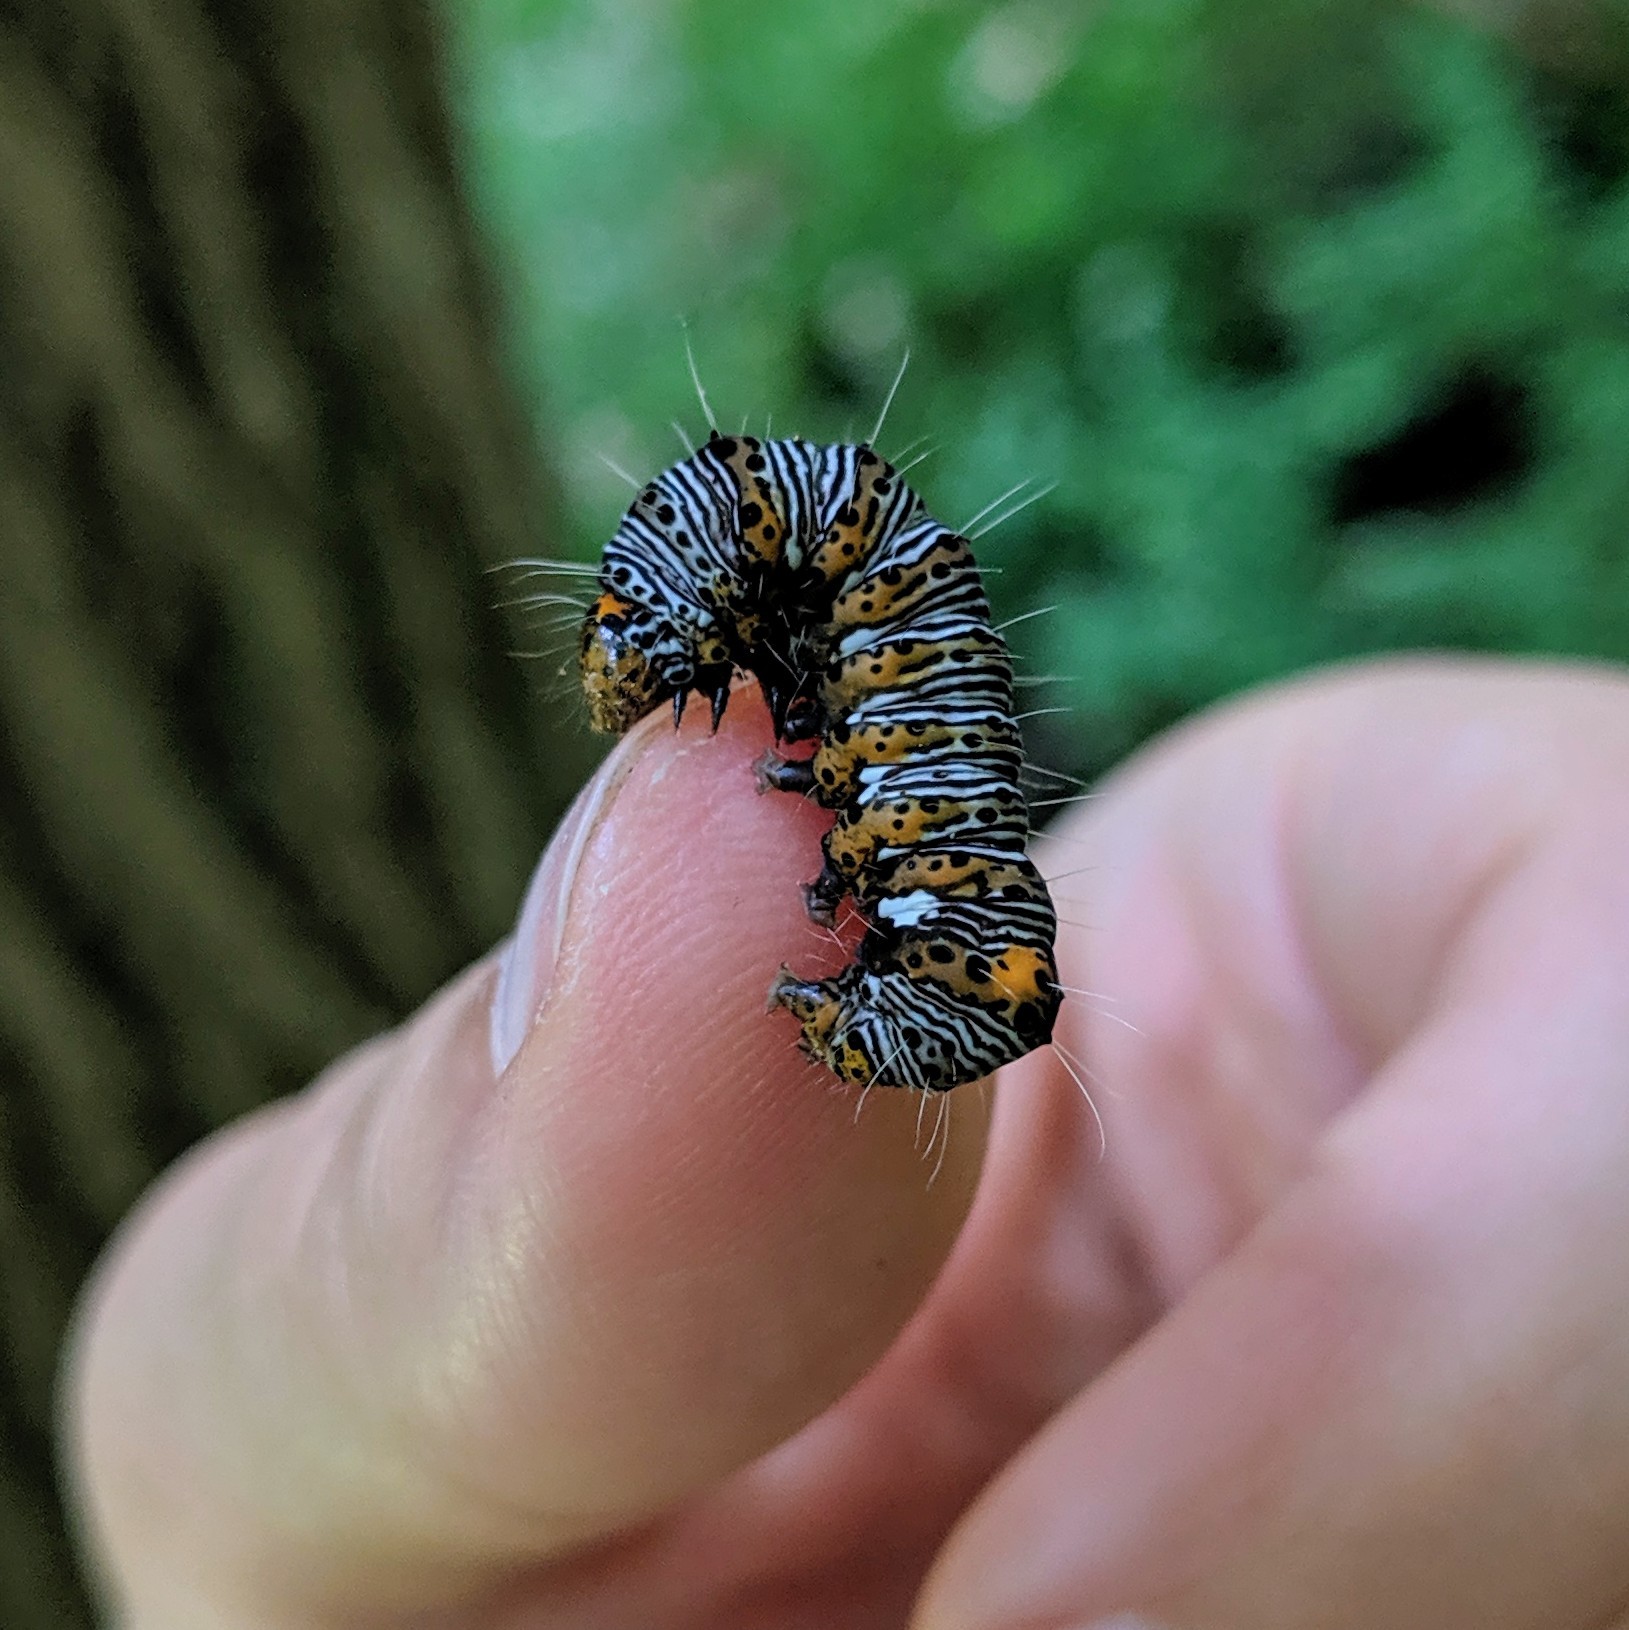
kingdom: Animalia
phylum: Arthropoda
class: Insecta
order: Lepidoptera
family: Noctuidae
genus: Alypia
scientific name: Alypia octomaculata
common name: Eight-spotted forester
